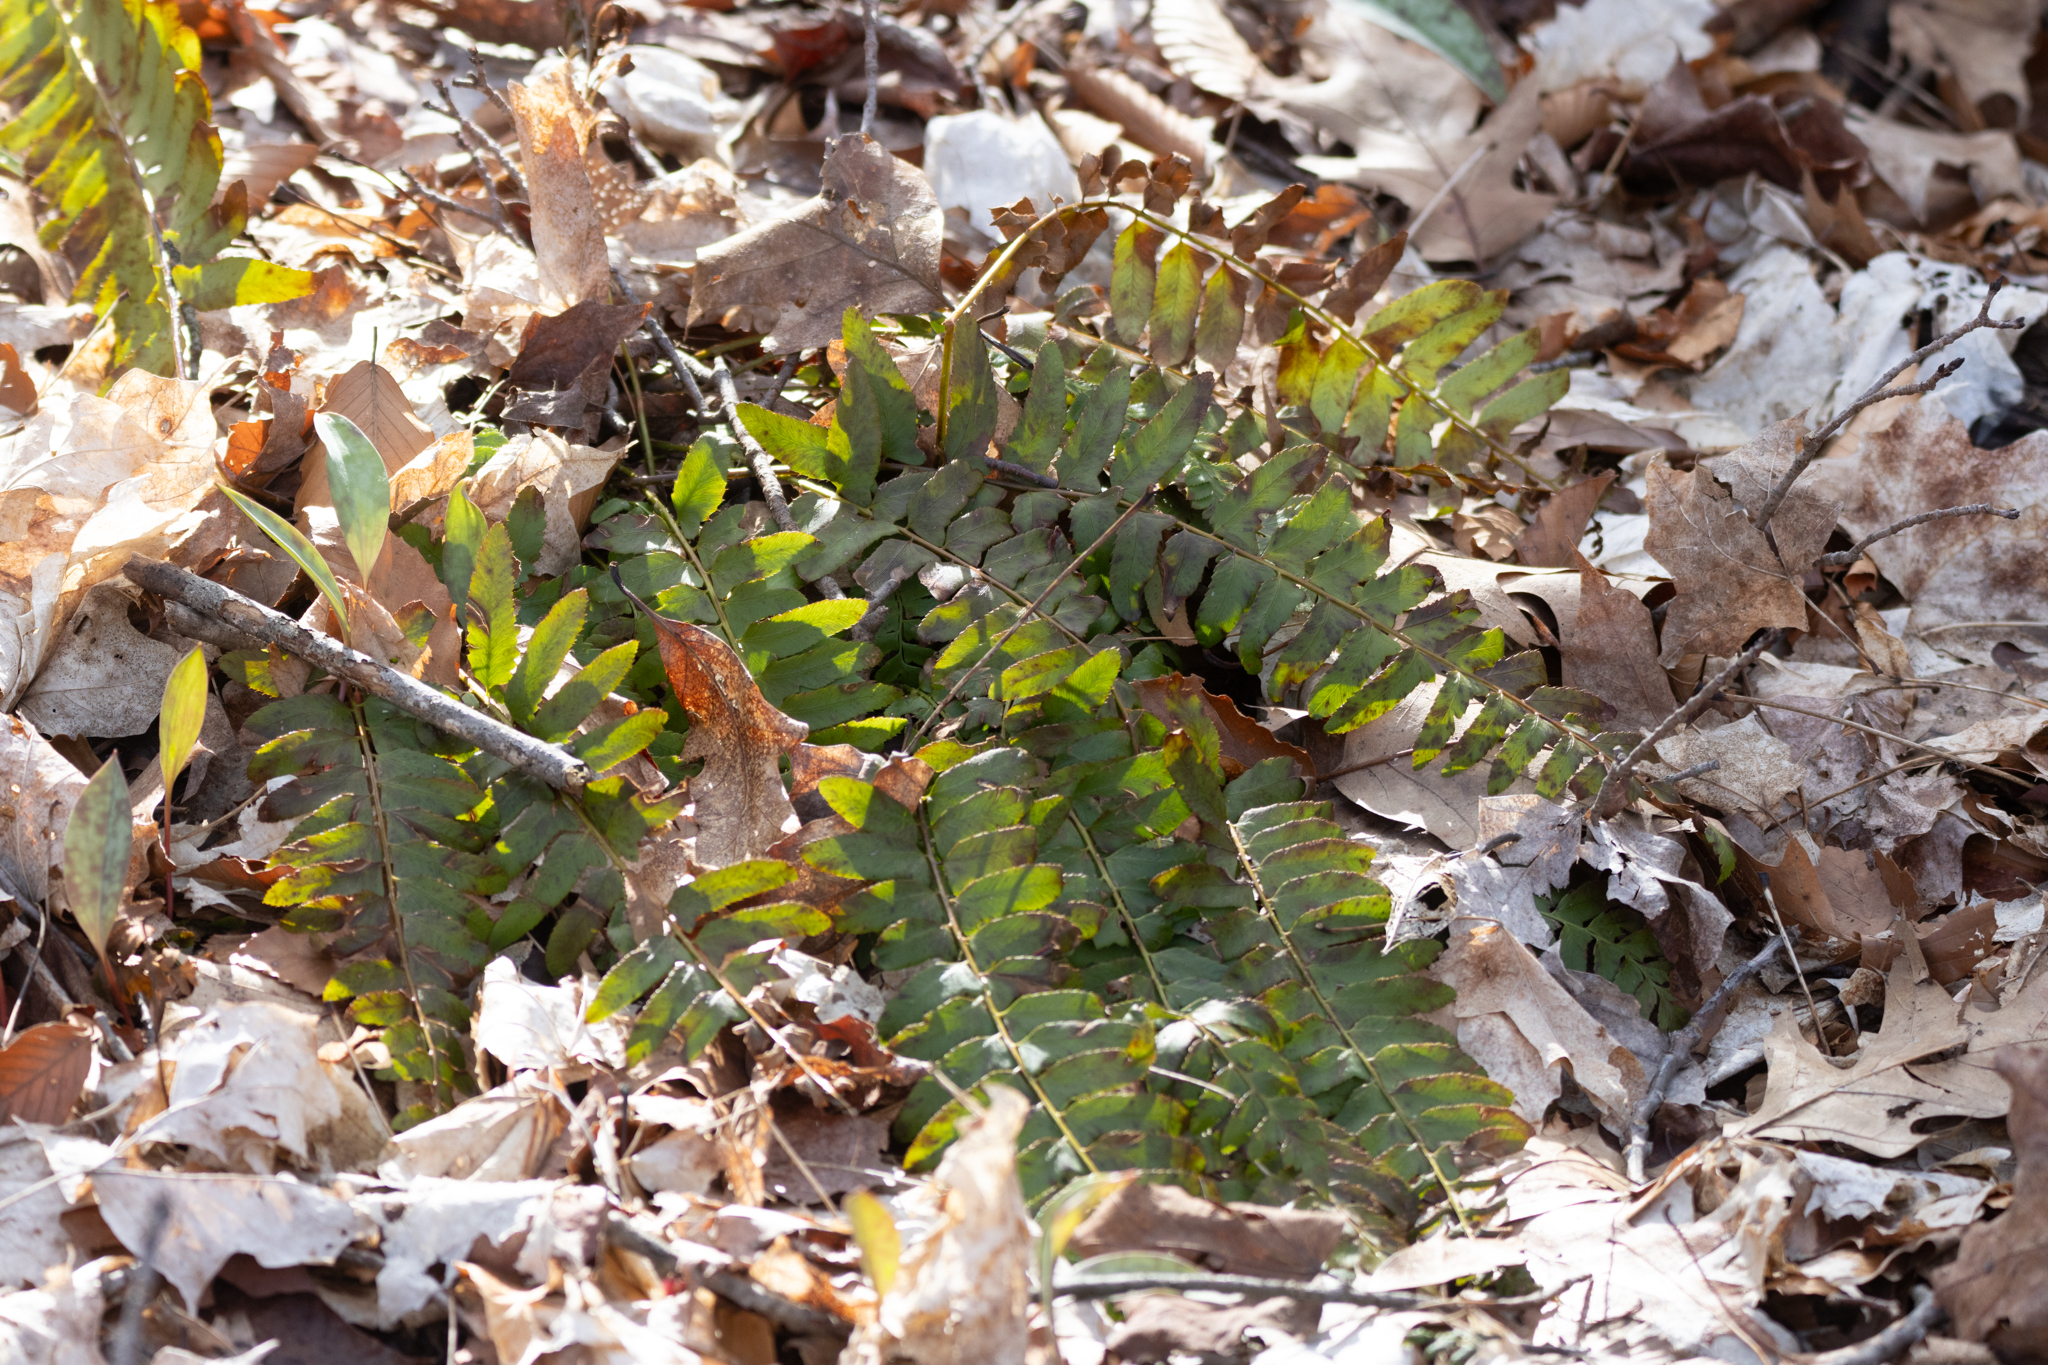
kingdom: Plantae
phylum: Tracheophyta
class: Polypodiopsida
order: Polypodiales
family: Dryopteridaceae
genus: Polystichum
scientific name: Polystichum acrostichoides
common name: Christmas fern
